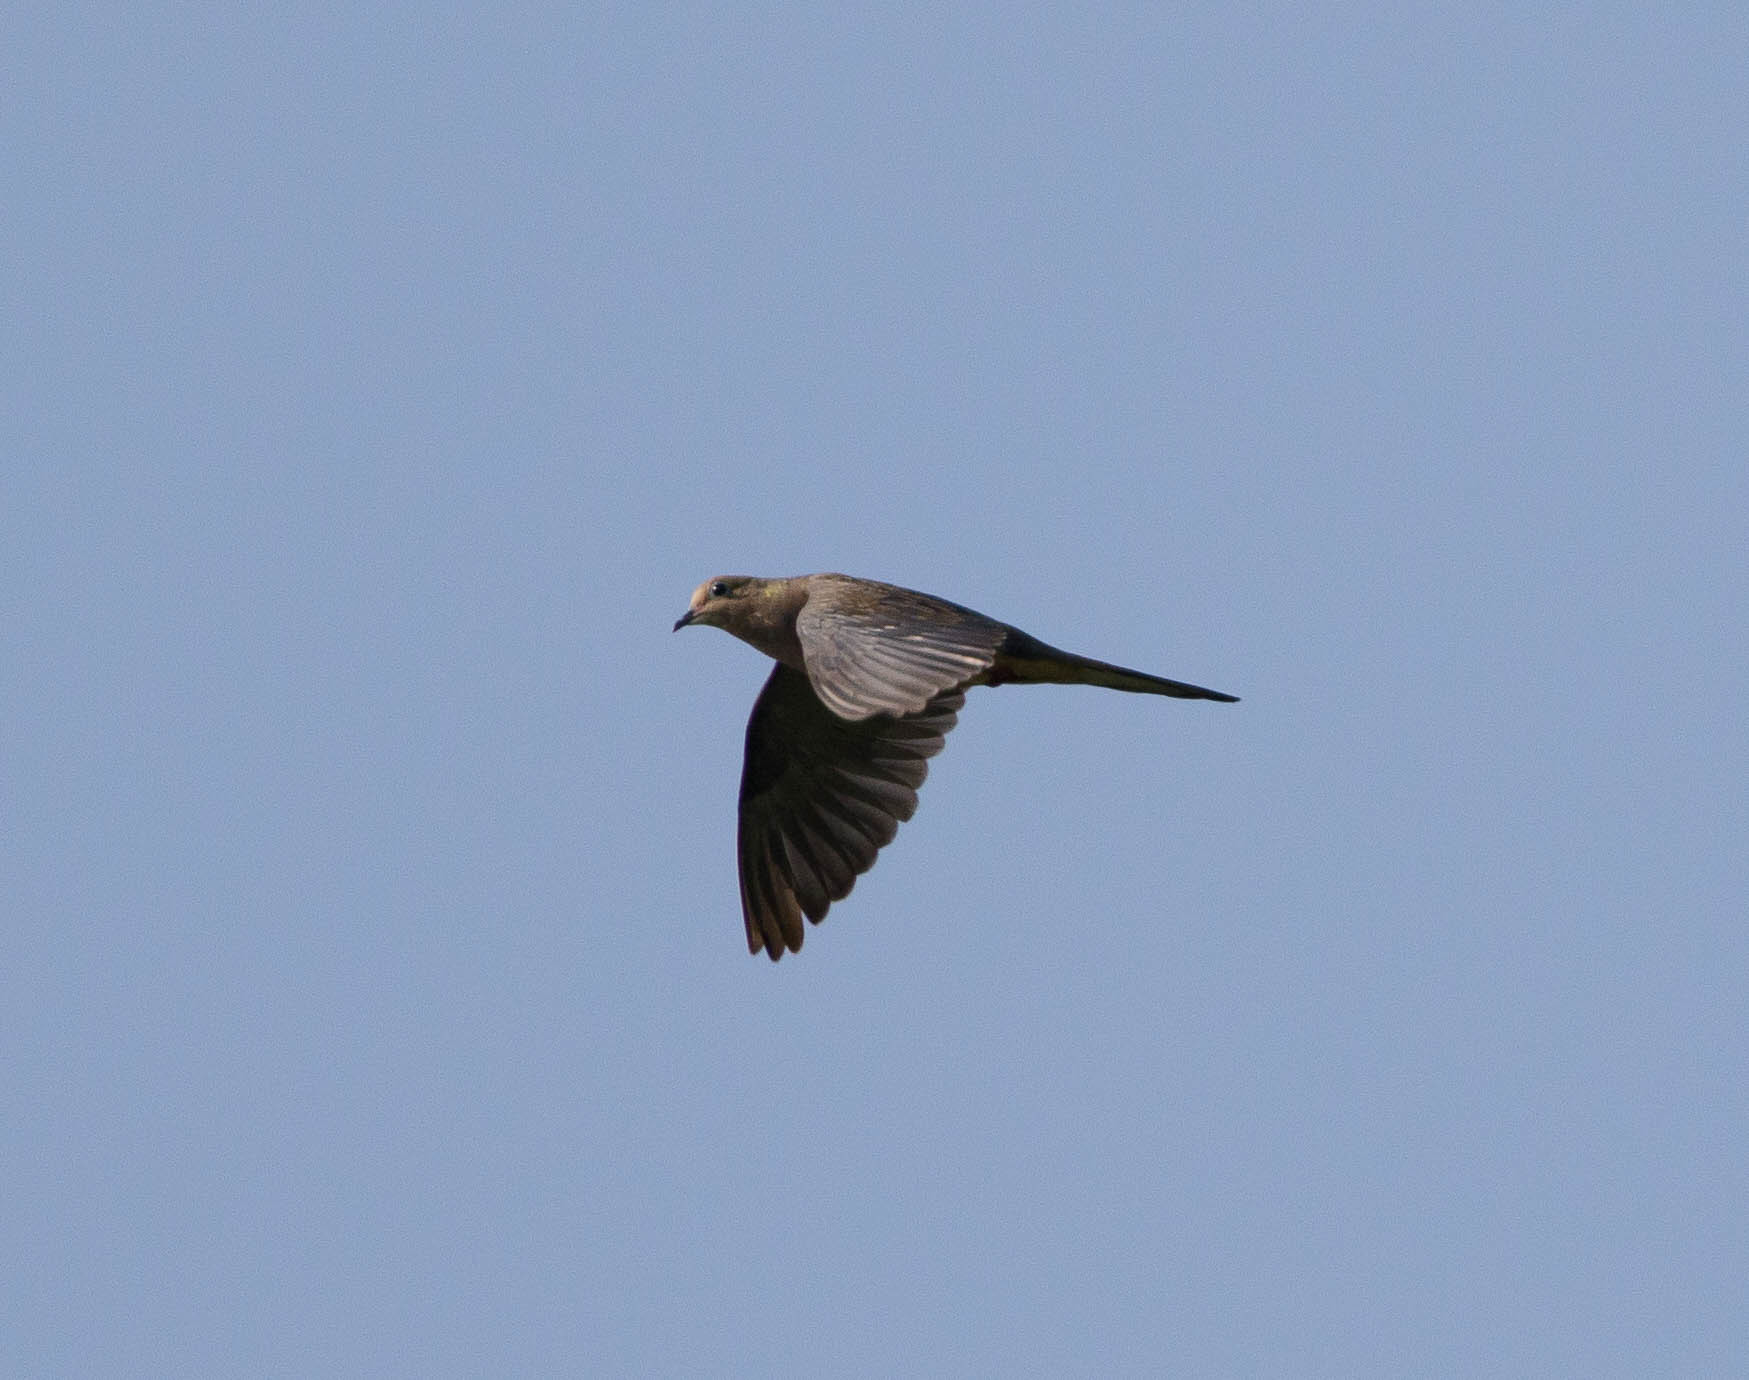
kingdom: Animalia
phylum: Chordata
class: Aves
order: Columbiformes
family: Columbidae
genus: Zenaida
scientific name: Zenaida macroura
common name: Mourning dove
